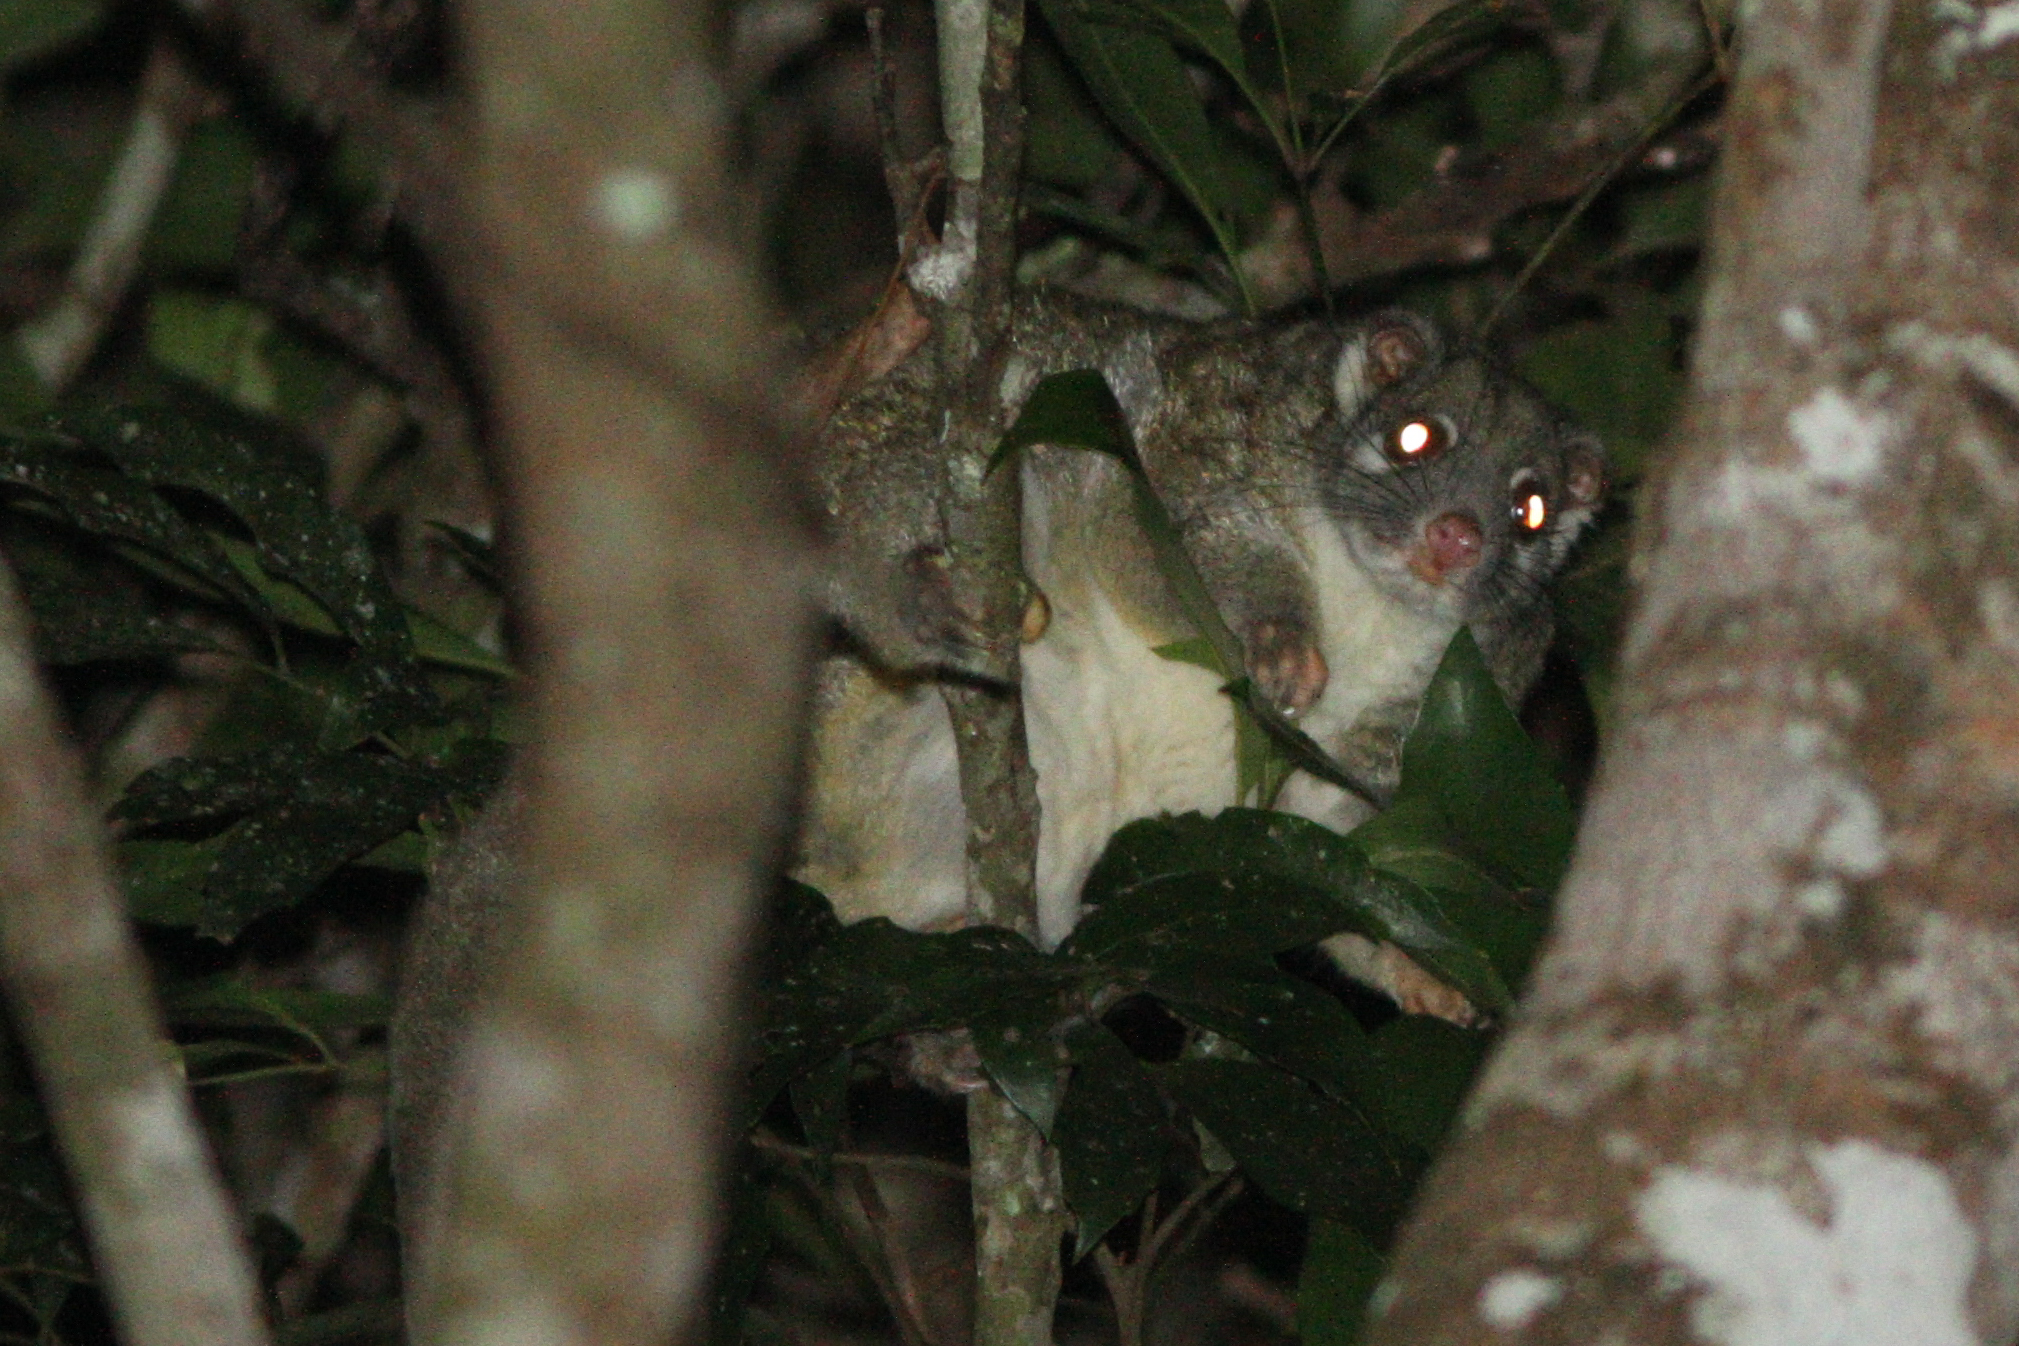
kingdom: Animalia
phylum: Chordata
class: Mammalia
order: Diprotodontia
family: Pseudocheiridae
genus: Pseudochirops
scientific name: Pseudochirops archeri
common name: Green ringtail
